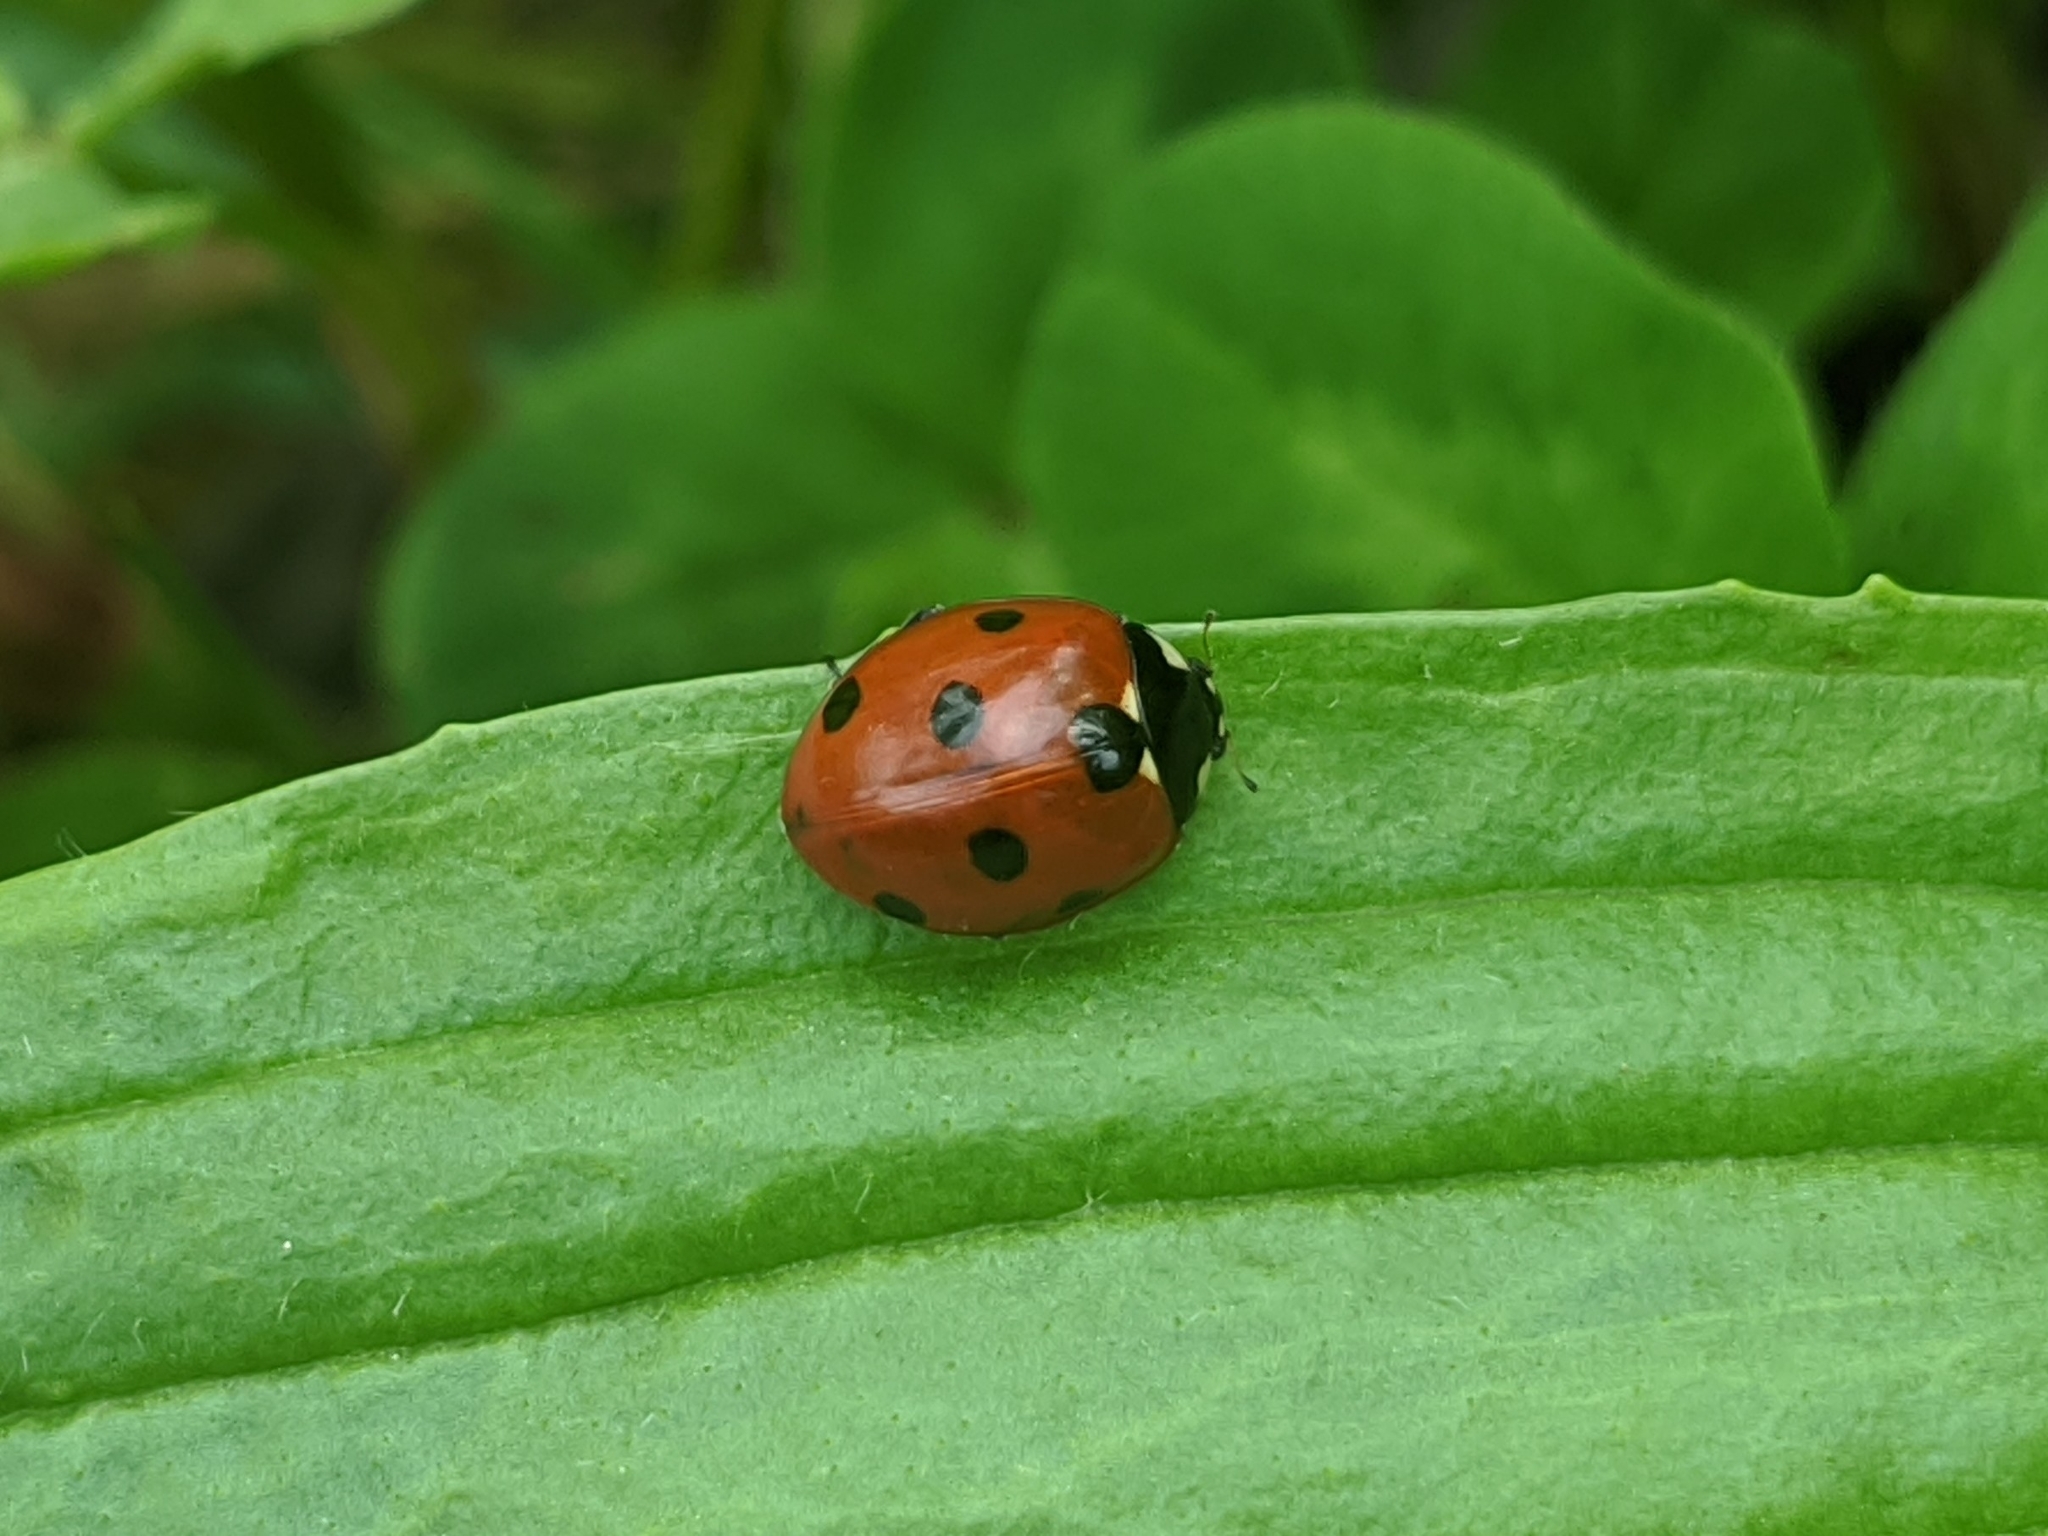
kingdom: Animalia
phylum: Arthropoda
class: Insecta
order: Coleoptera
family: Coccinellidae
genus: Coccinella
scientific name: Coccinella septempunctata
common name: Sevenspotted lady beetle
